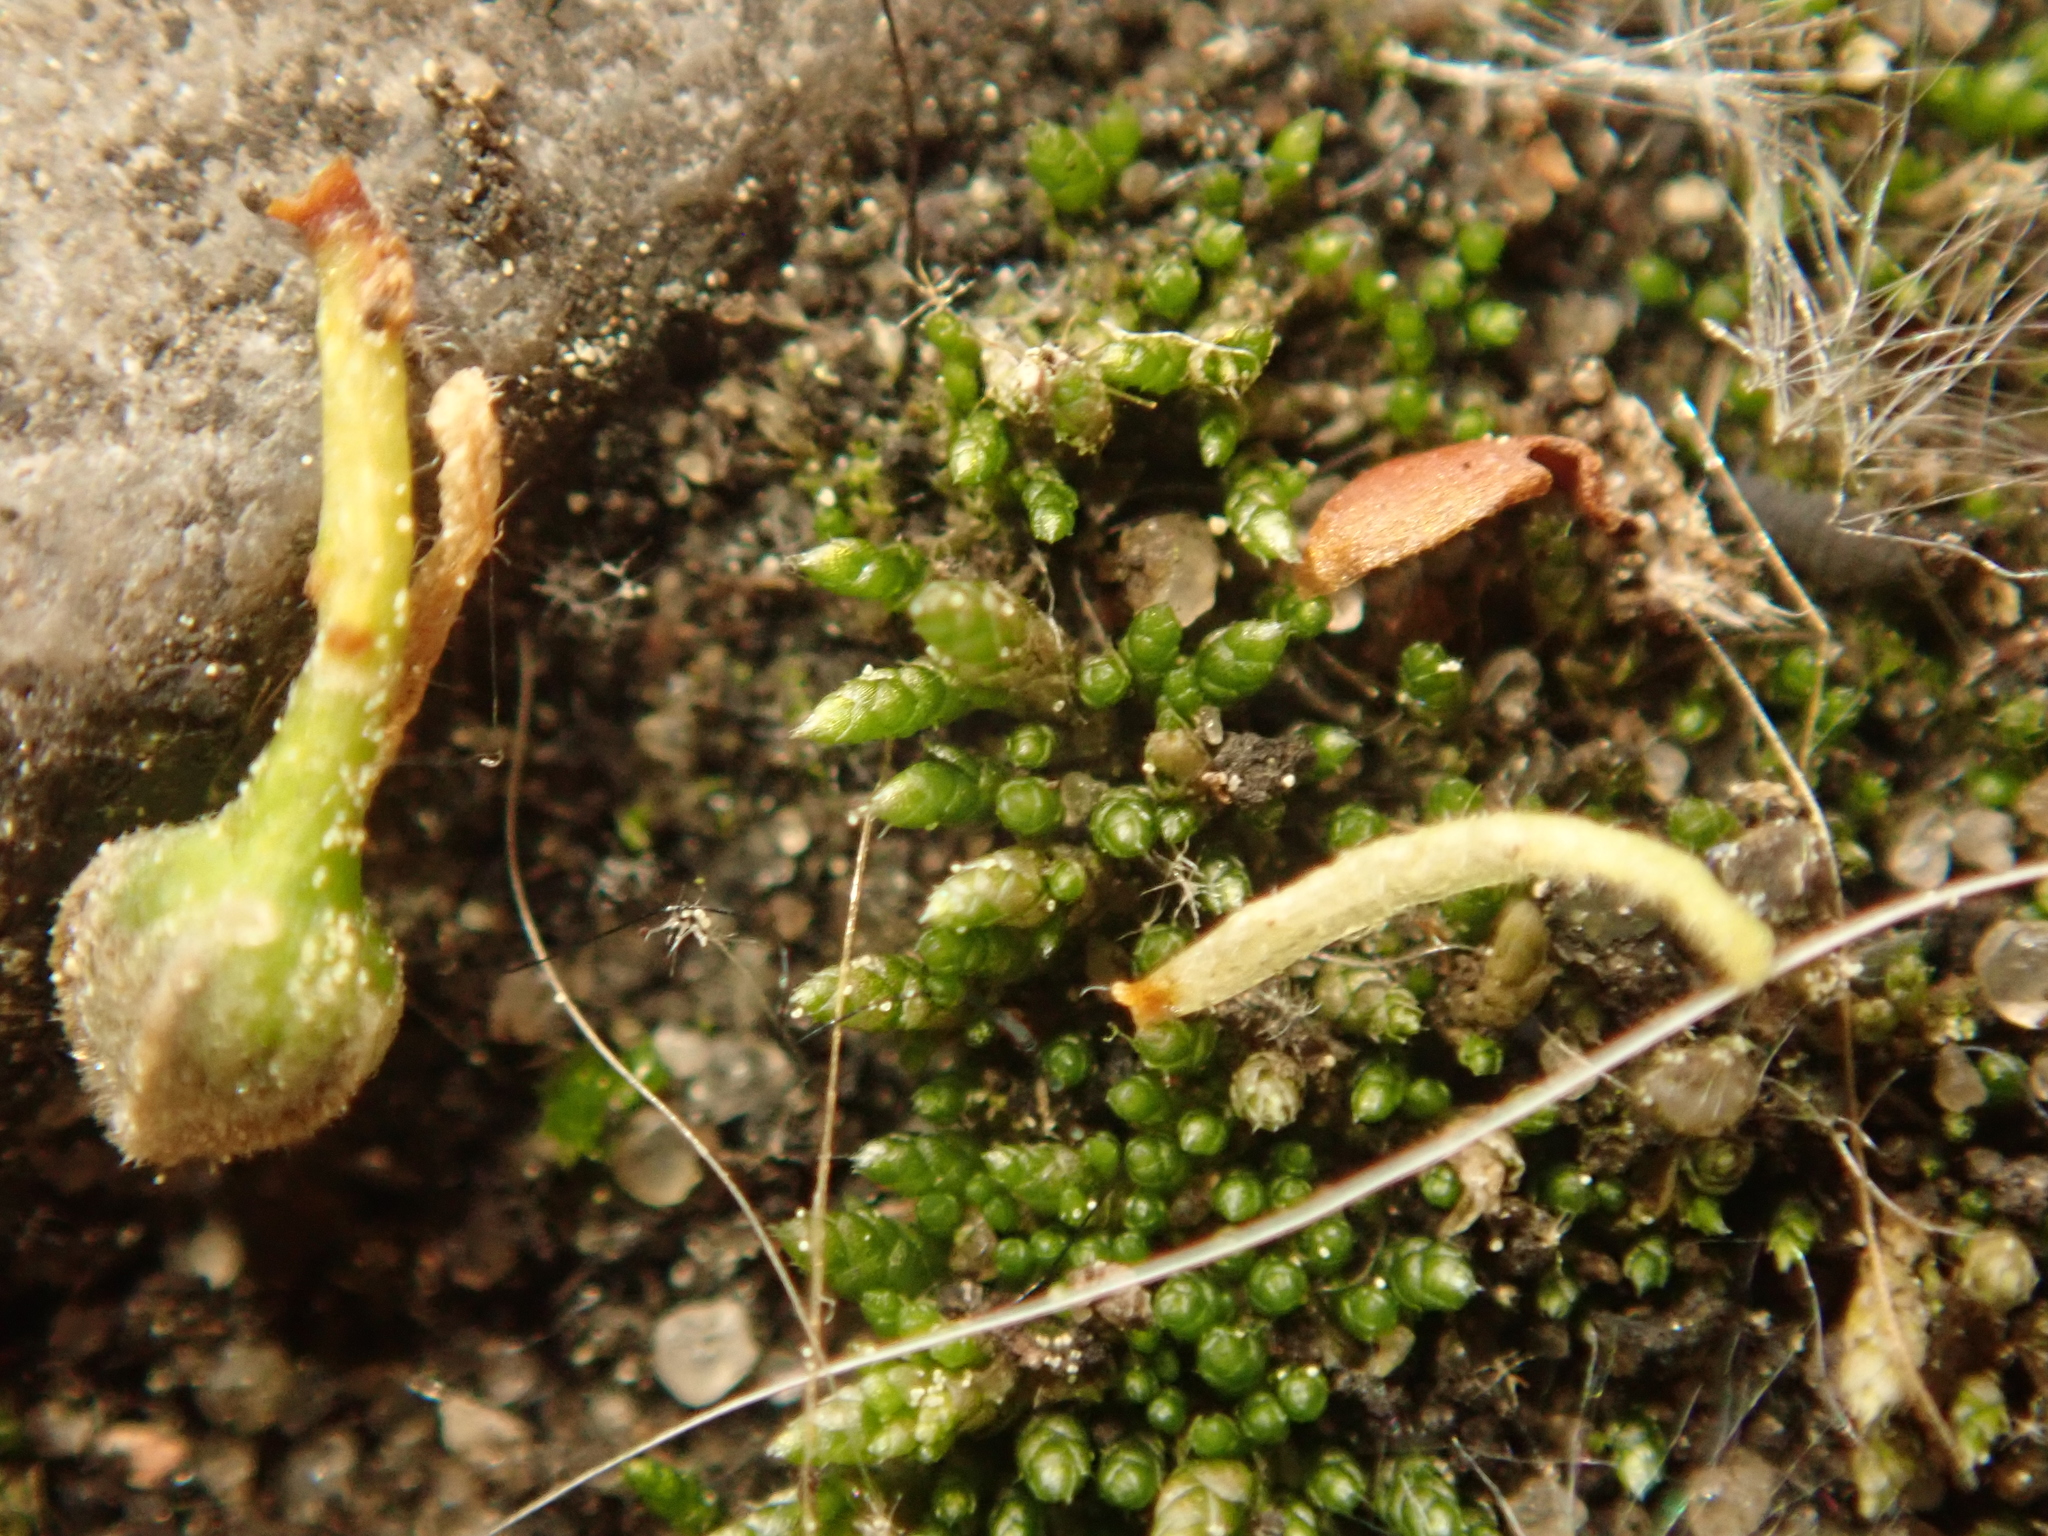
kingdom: Plantae
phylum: Bryophyta
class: Bryopsida
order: Bryales
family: Bryaceae
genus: Bryum
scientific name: Bryum argenteum
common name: Silver-moss
